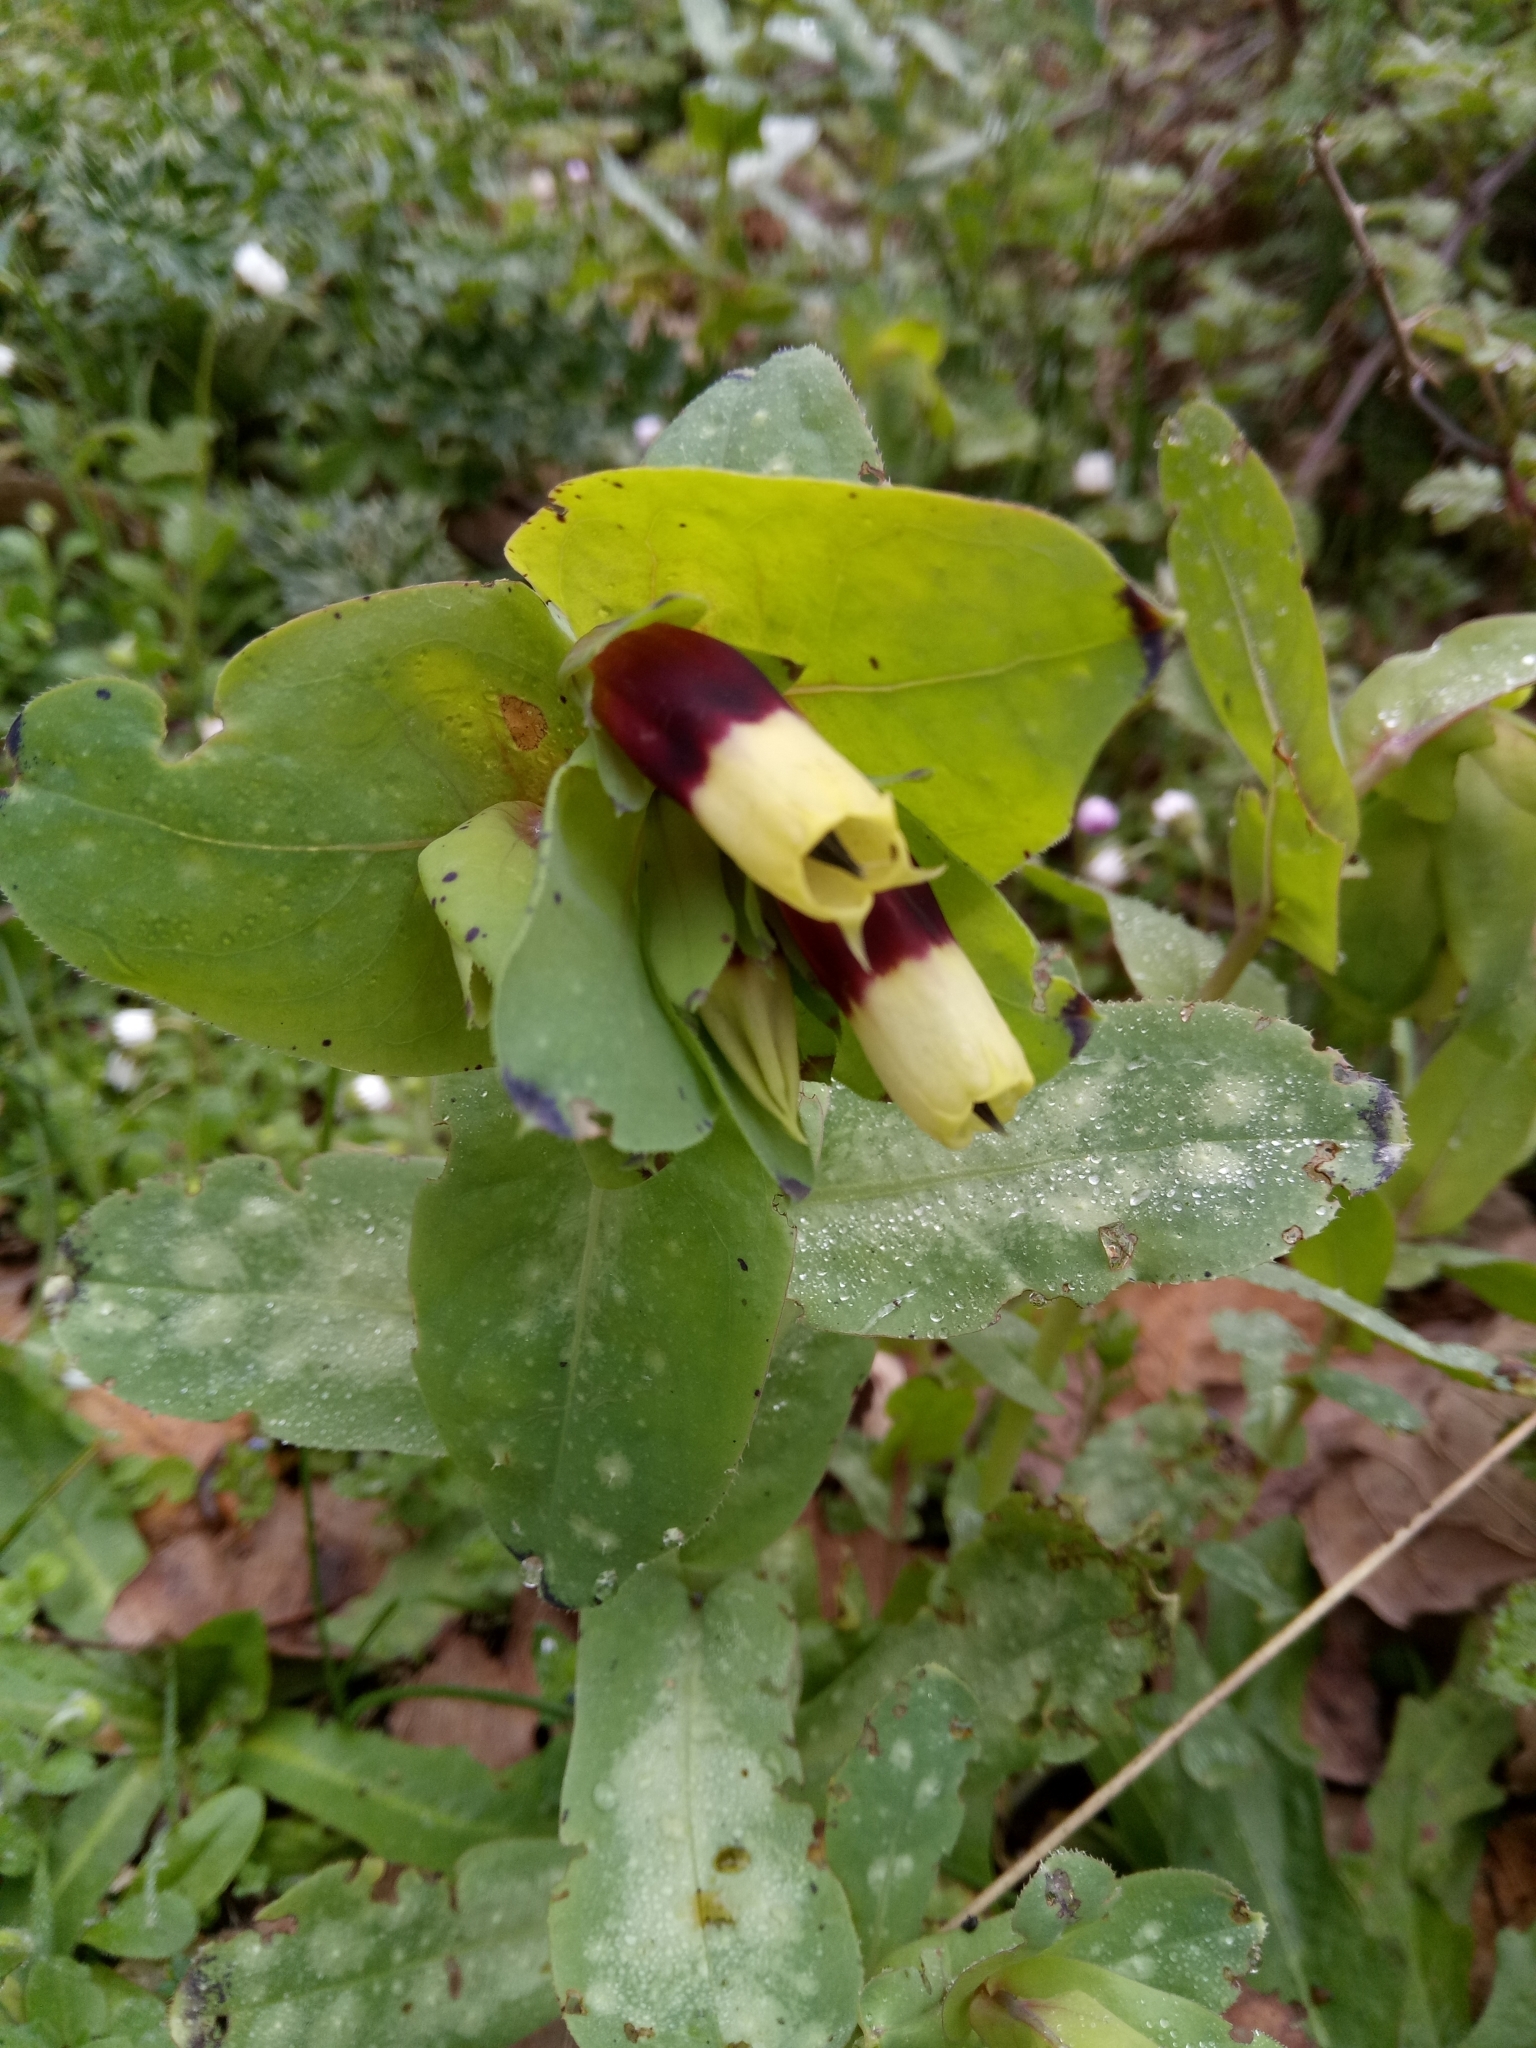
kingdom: Plantae
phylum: Tracheophyta
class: Magnoliopsida
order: Boraginales
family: Boraginaceae
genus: Cerinthe
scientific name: Cerinthe major
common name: Greater honeywort
